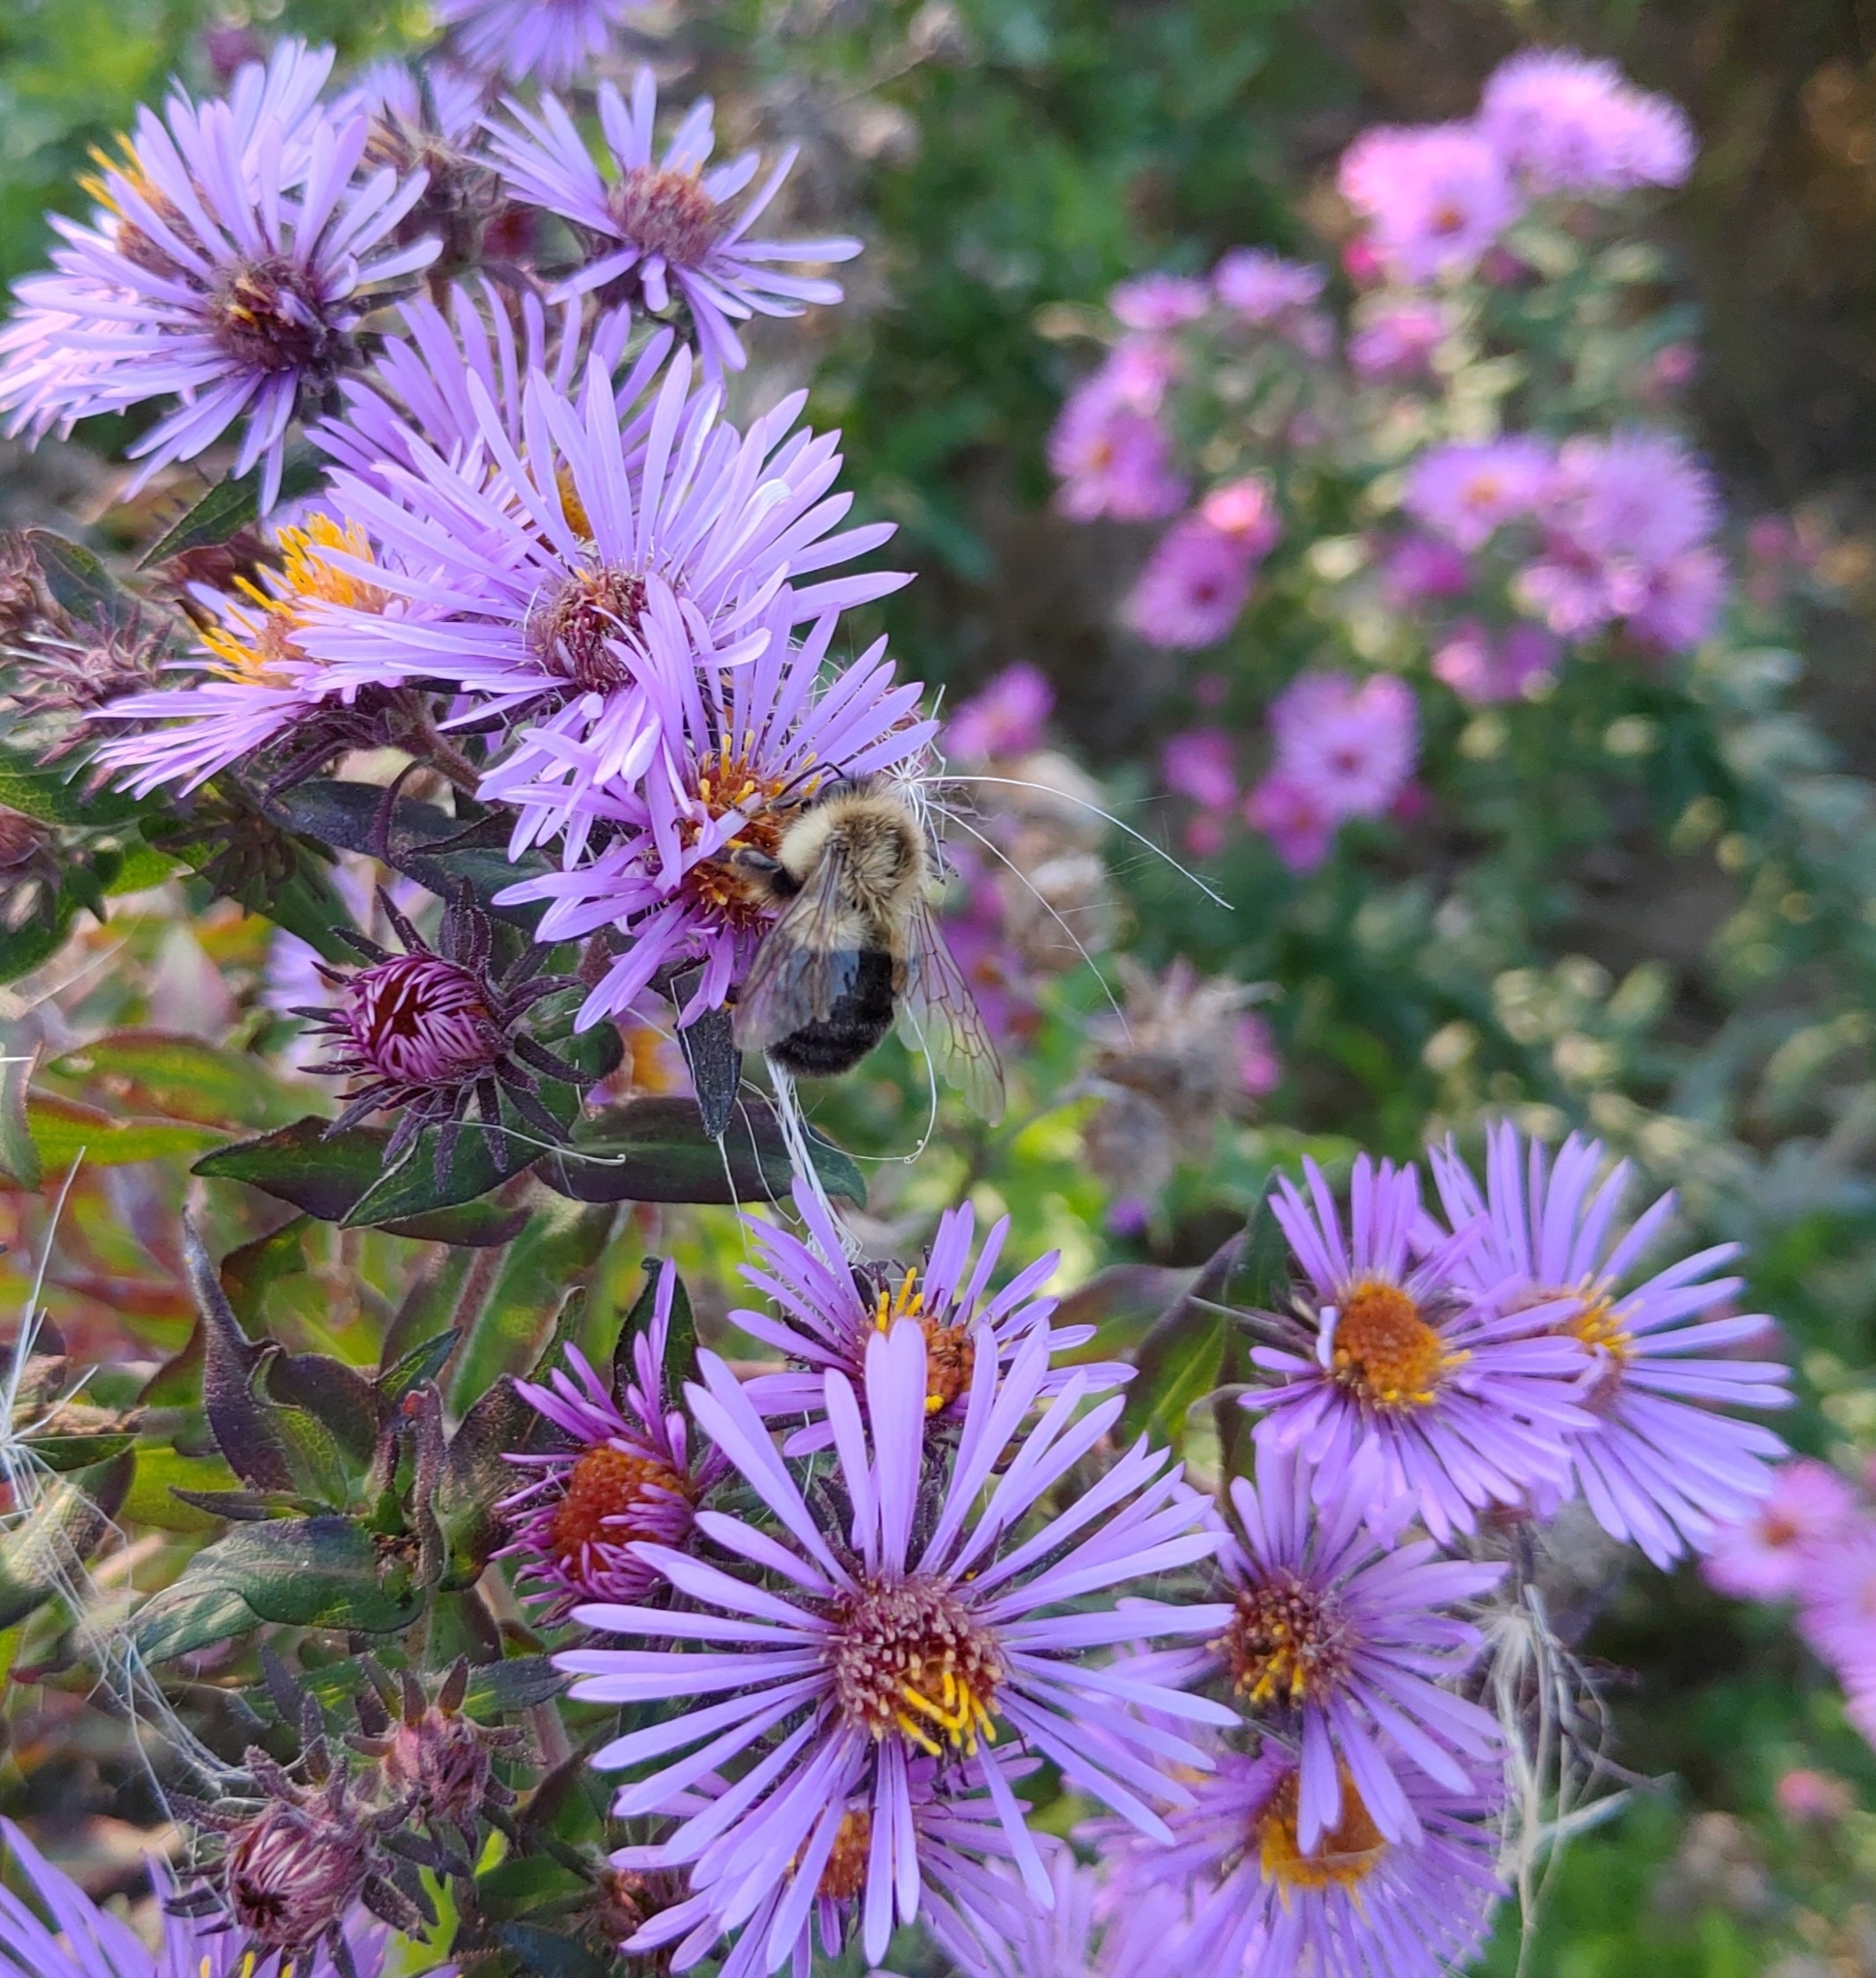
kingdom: Plantae
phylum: Tracheophyta
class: Magnoliopsida
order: Asterales
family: Asteraceae
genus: Symphyotrichum
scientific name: Symphyotrichum novae-angliae
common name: Michaelmas daisy
